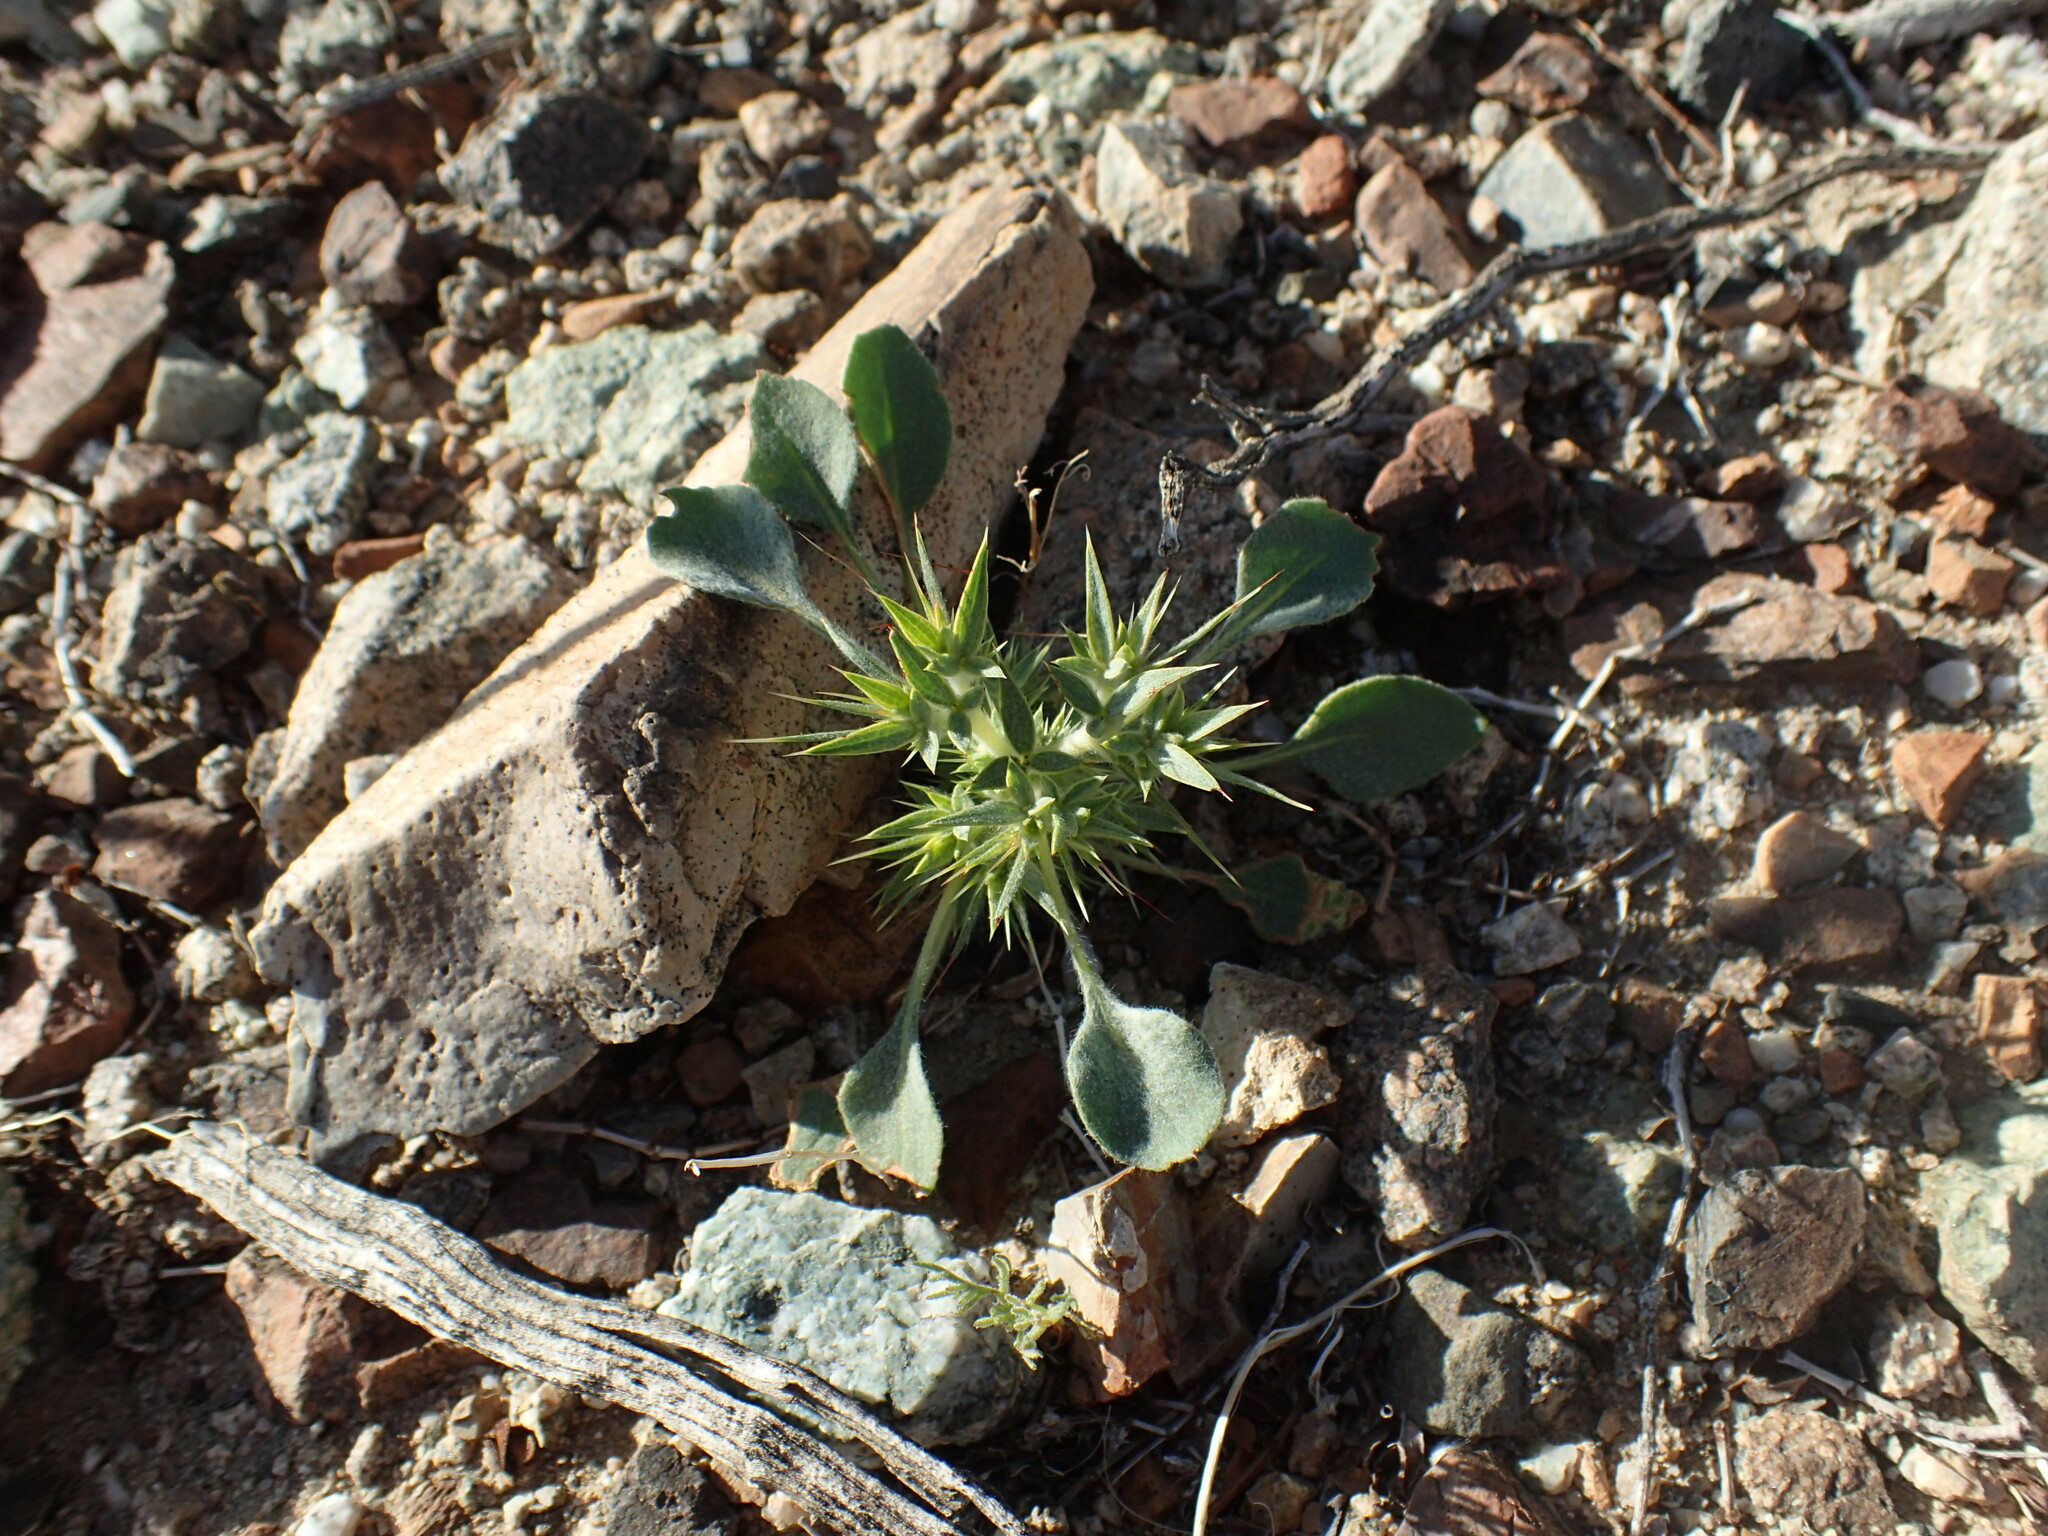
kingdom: Plantae
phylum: Tracheophyta
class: Magnoliopsida
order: Caryophyllales
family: Polygonaceae
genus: Chorizanthe
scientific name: Chorizanthe rigida
